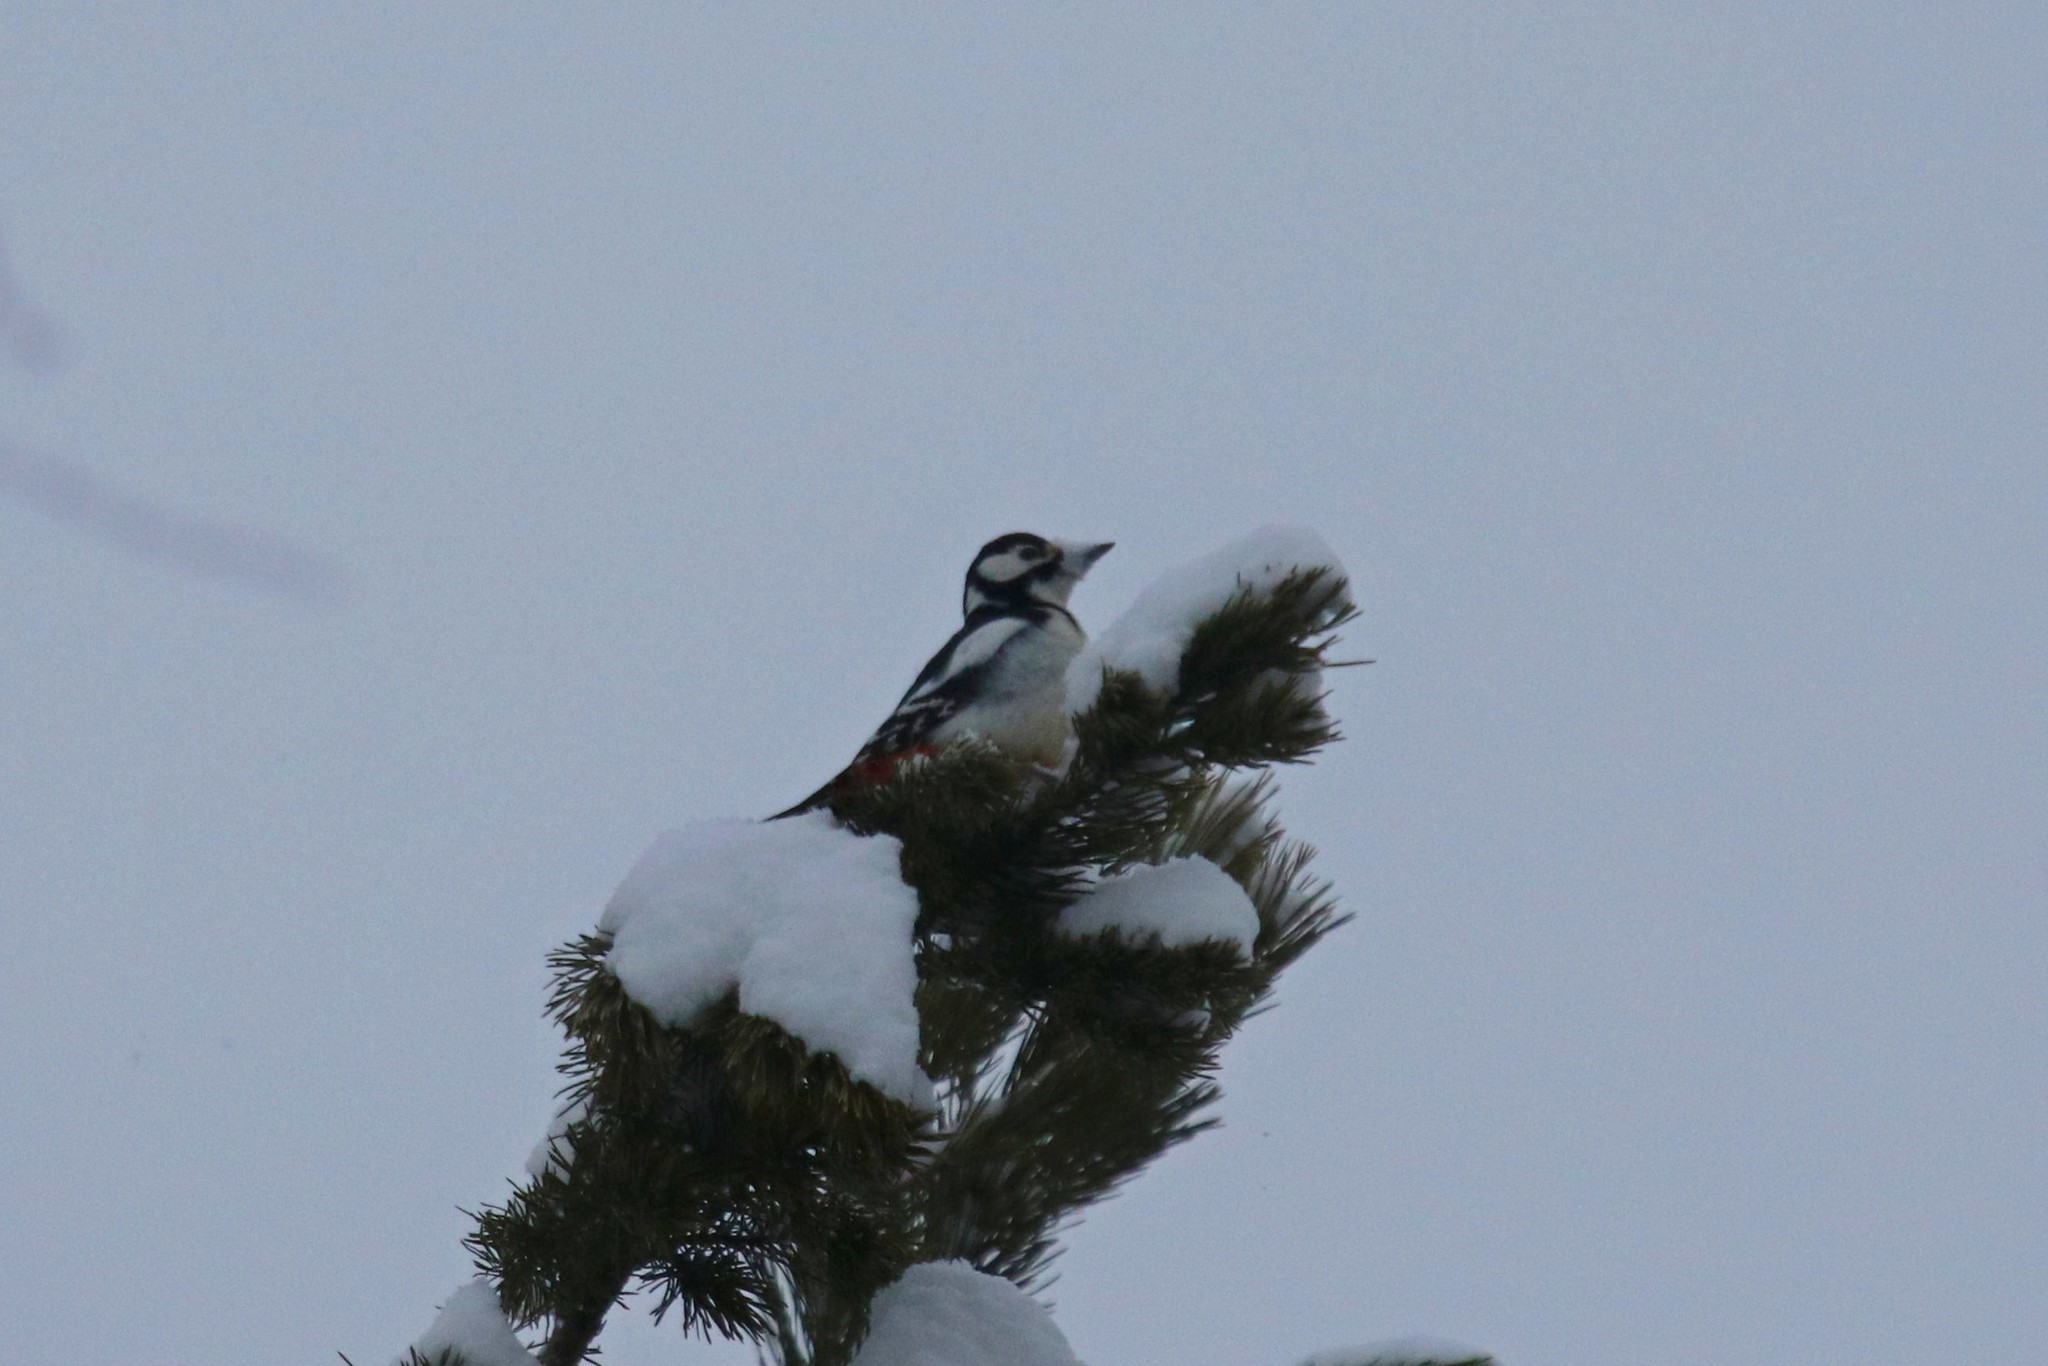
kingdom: Animalia
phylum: Chordata
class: Aves
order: Piciformes
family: Picidae
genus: Dendrocopos
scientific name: Dendrocopos major
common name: Great spotted woodpecker
